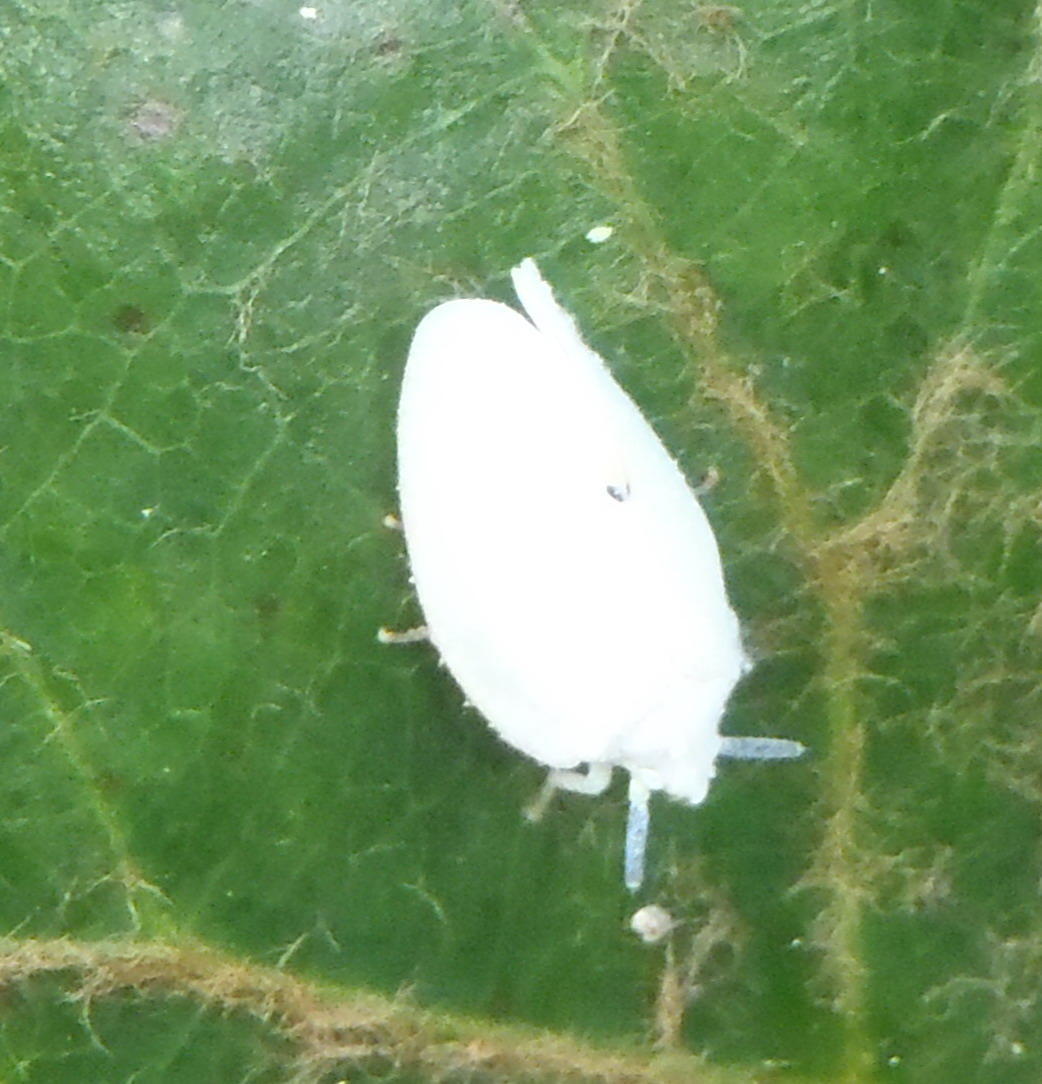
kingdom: Animalia
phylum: Arthropoda
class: Insecta
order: Hemiptera
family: Flatidae
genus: Dalapax
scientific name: Dalapax postica
